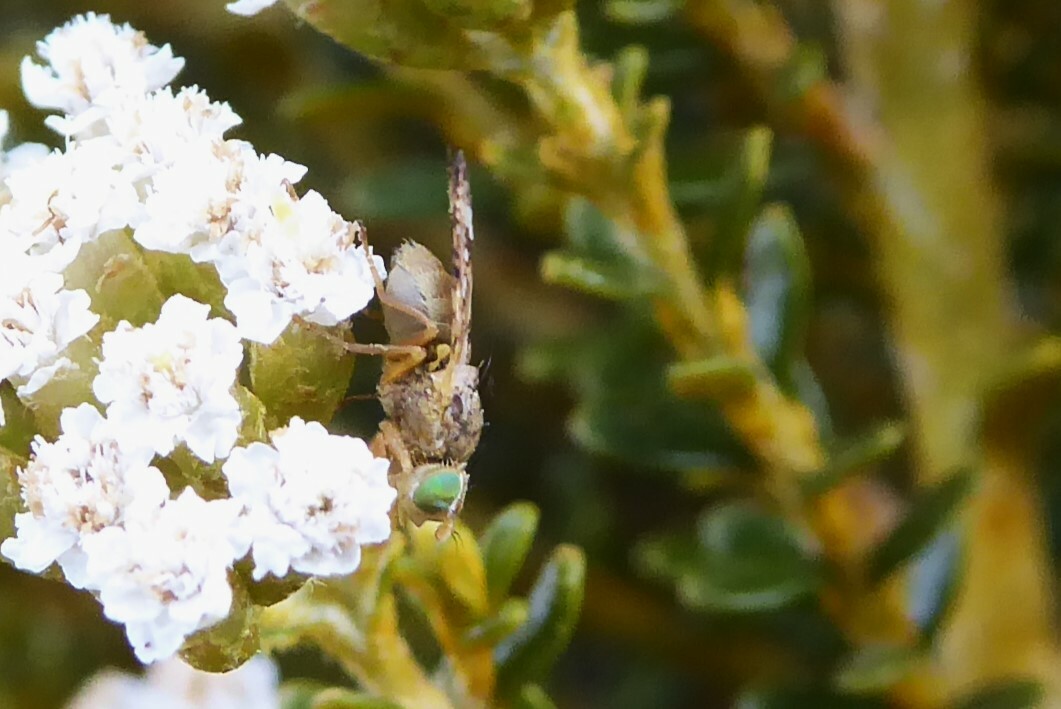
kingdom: Animalia
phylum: Arthropoda
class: Insecta
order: Diptera
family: Tephritidae
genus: Austrotephritis
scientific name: Austrotephritis
